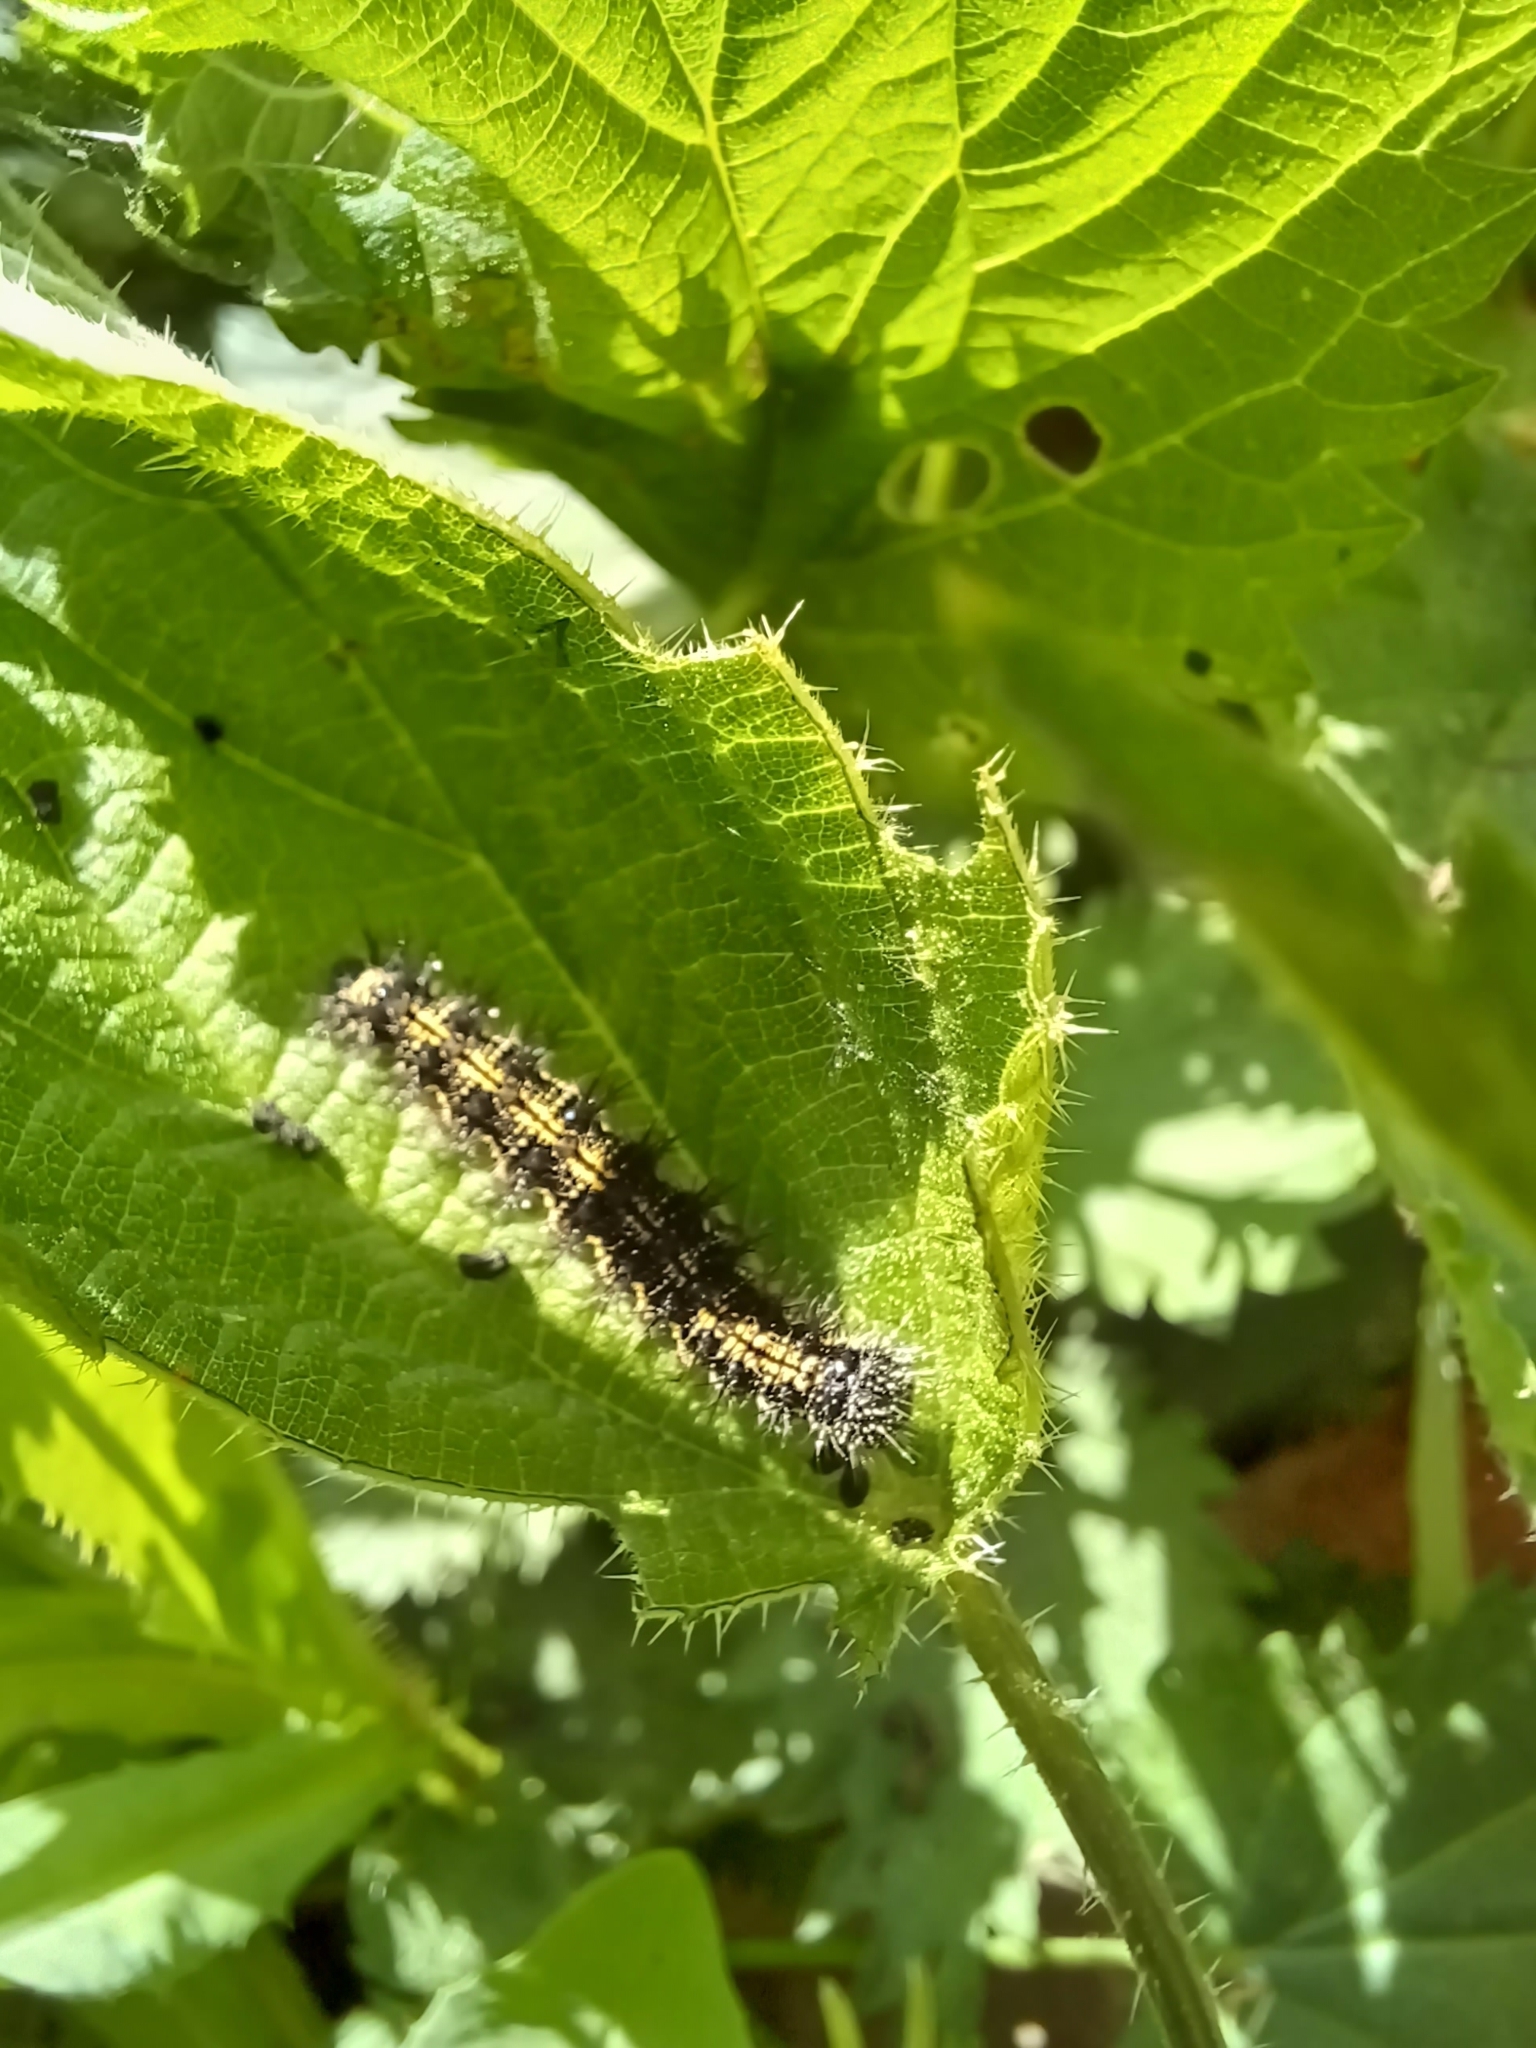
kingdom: Animalia
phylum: Arthropoda
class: Insecta
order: Lepidoptera
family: Nymphalidae
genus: Aglais
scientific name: Aglais urticae
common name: Small tortoiseshell
